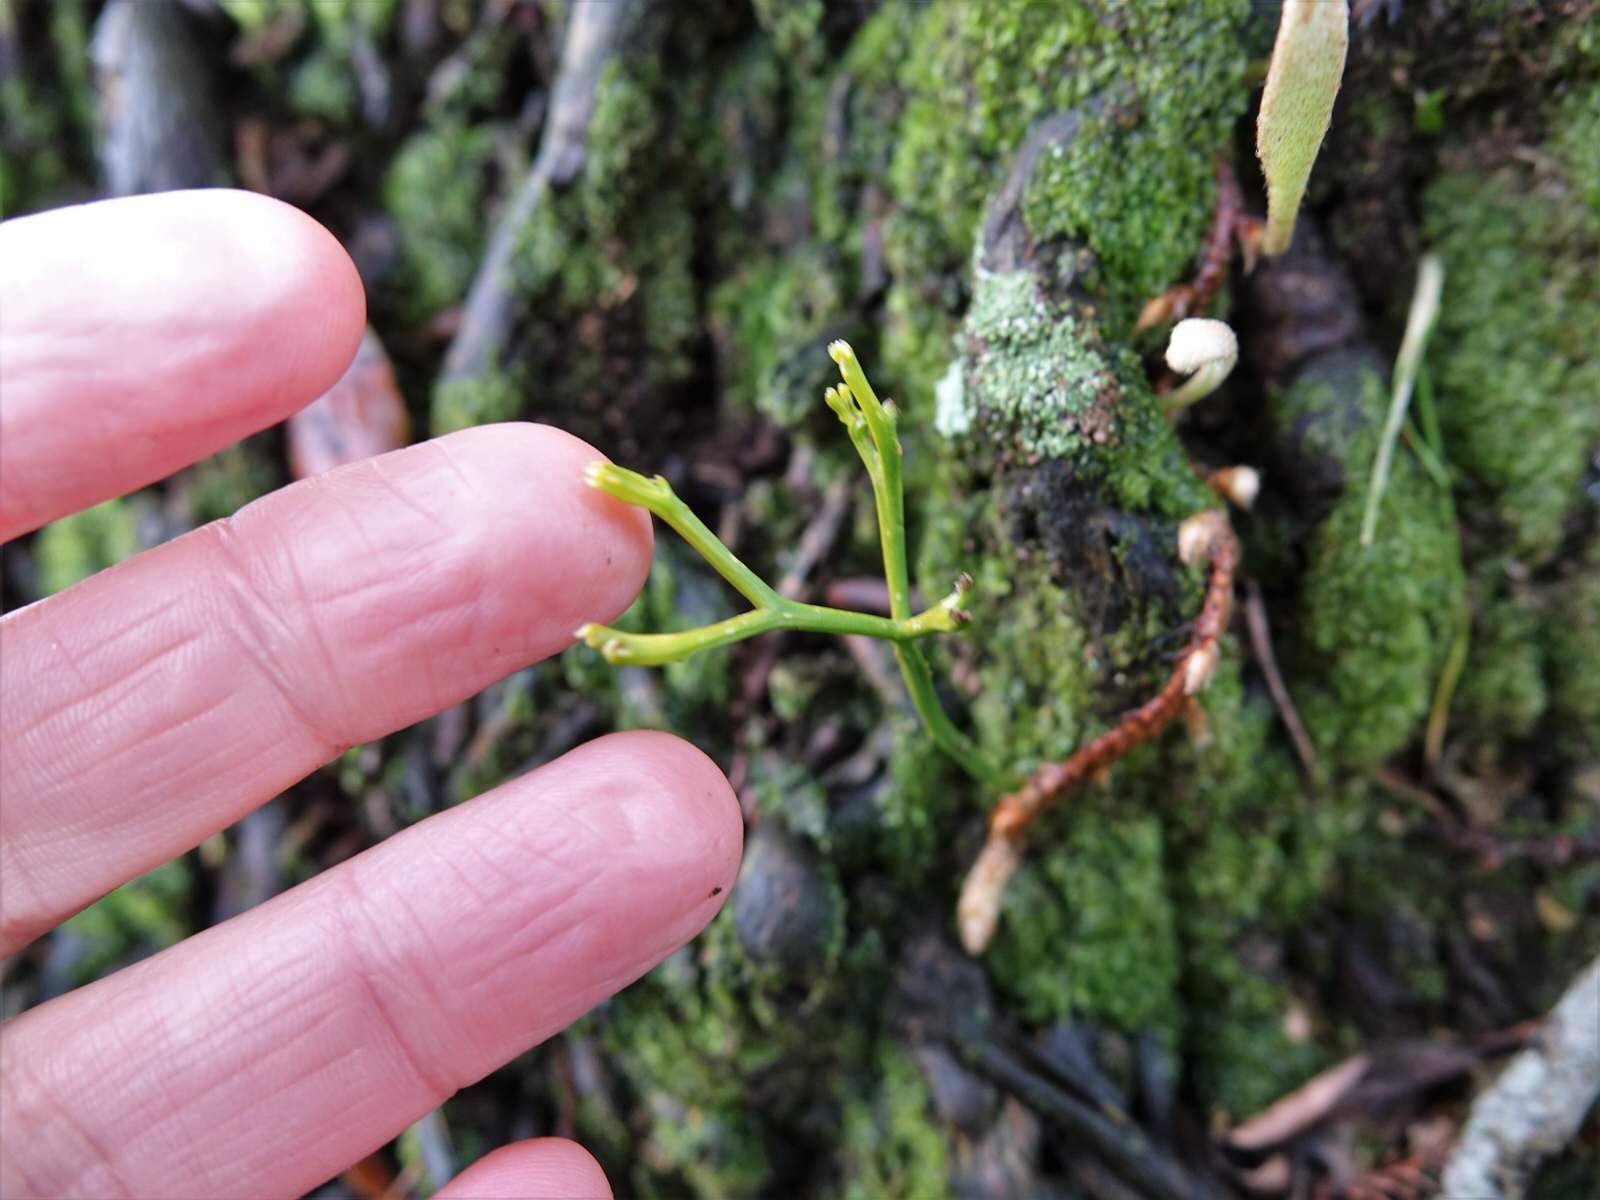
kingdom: Plantae
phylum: Tracheophyta
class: Polypodiopsida
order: Psilotales
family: Psilotaceae
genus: Psilotum
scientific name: Psilotum nudum
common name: Skeleton fork fern
